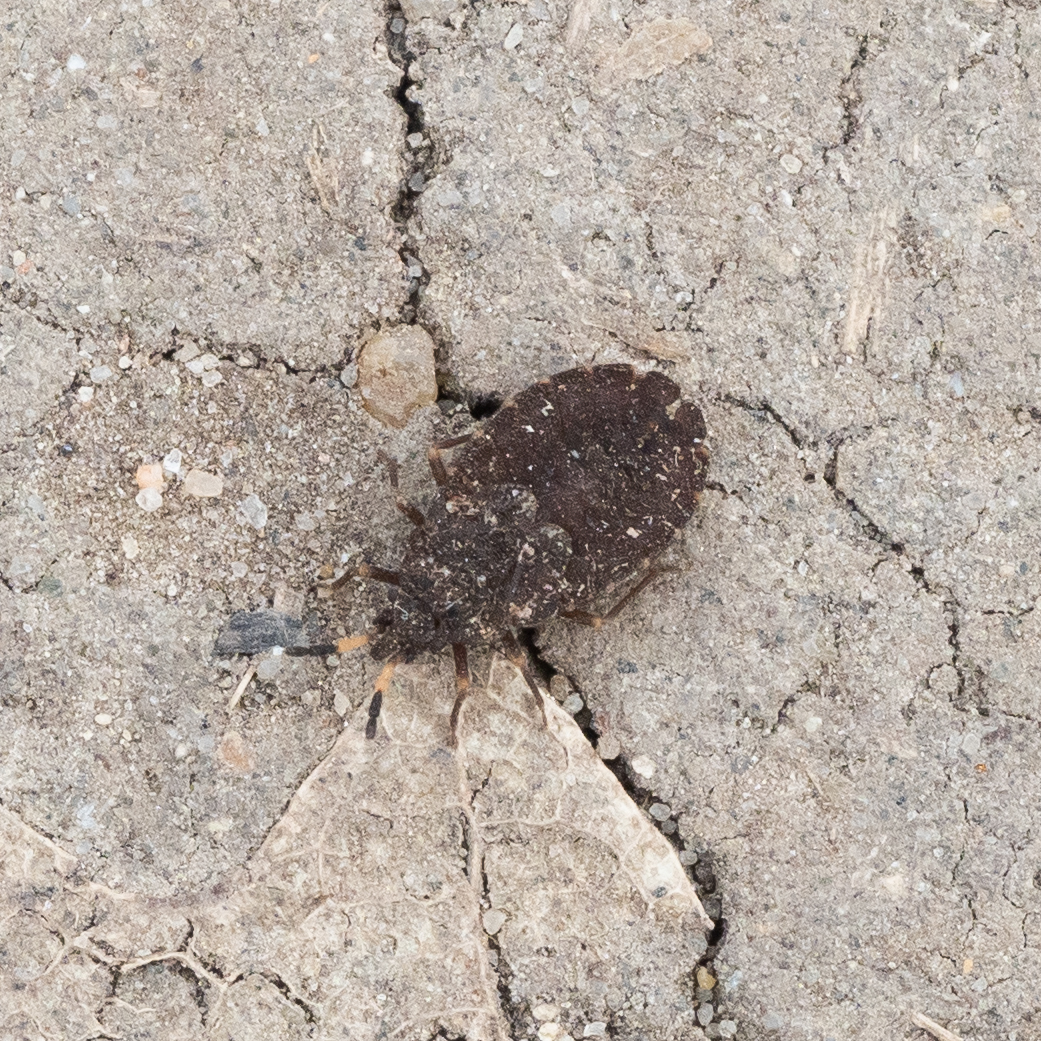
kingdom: Animalia
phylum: Arthropoda
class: Insecta
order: Hemiptera
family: Aradidae
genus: Aradus
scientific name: Aradus distinctus
